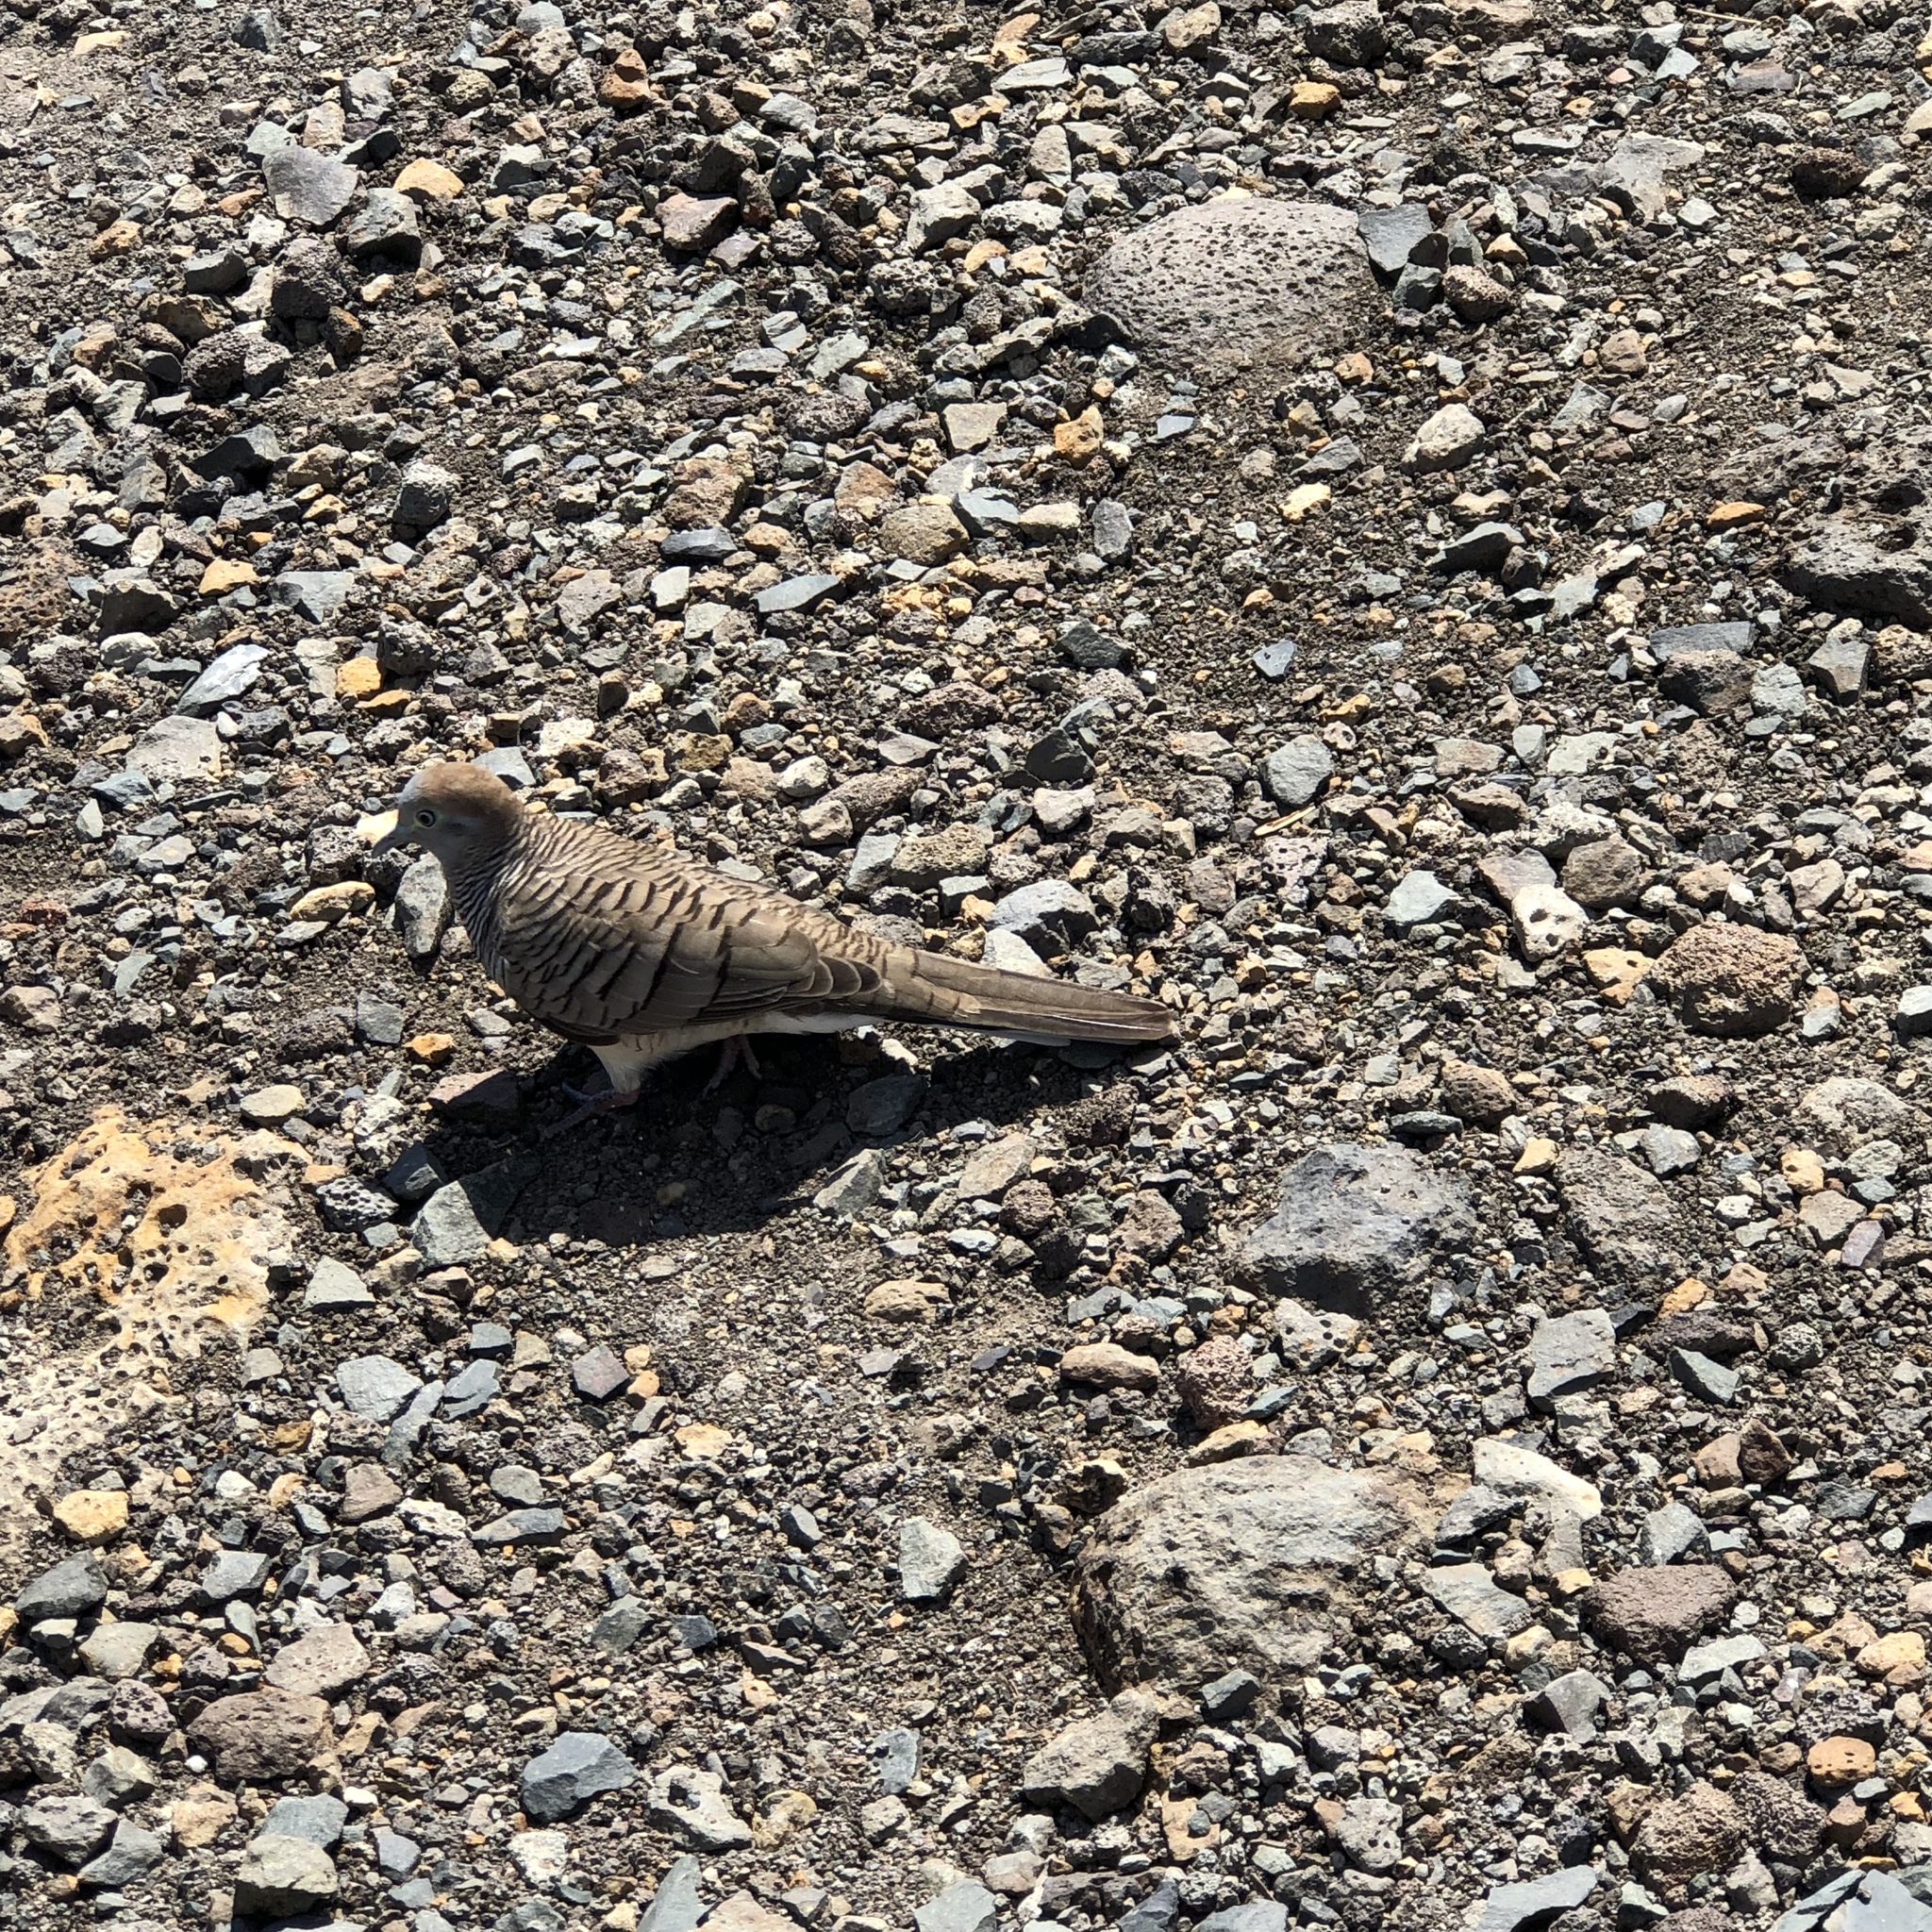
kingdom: Animalia
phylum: Chordata
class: Aves
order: Columbiformes
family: Columbidae
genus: Geopelia
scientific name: Geopelia striata
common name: Zebra dove
